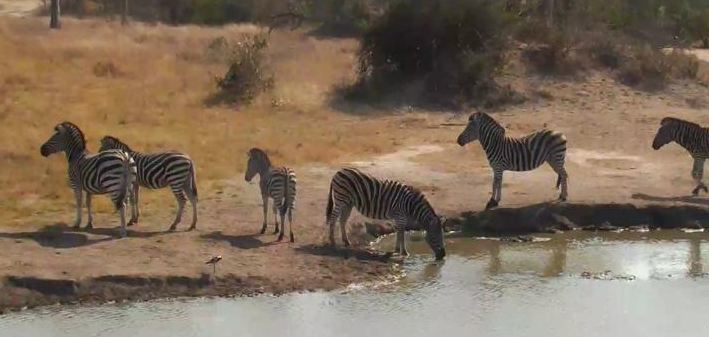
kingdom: Animalia
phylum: Chordata
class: Mammalia
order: Perissodactyla
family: Equidae
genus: Equus
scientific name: Equus quagga
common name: Plains zebra
